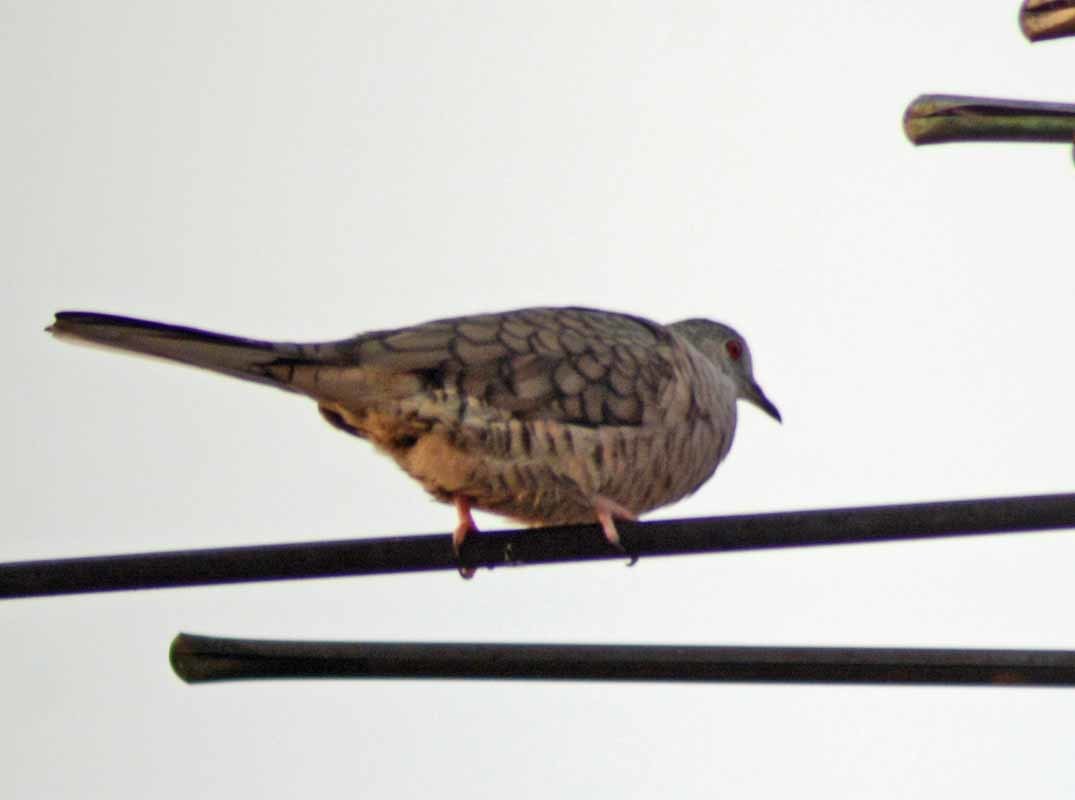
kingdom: Animalia
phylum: Chordata
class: Aves
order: Columbiformes
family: Columbidae
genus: Columbina
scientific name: Columbina inca
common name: Inca dove
